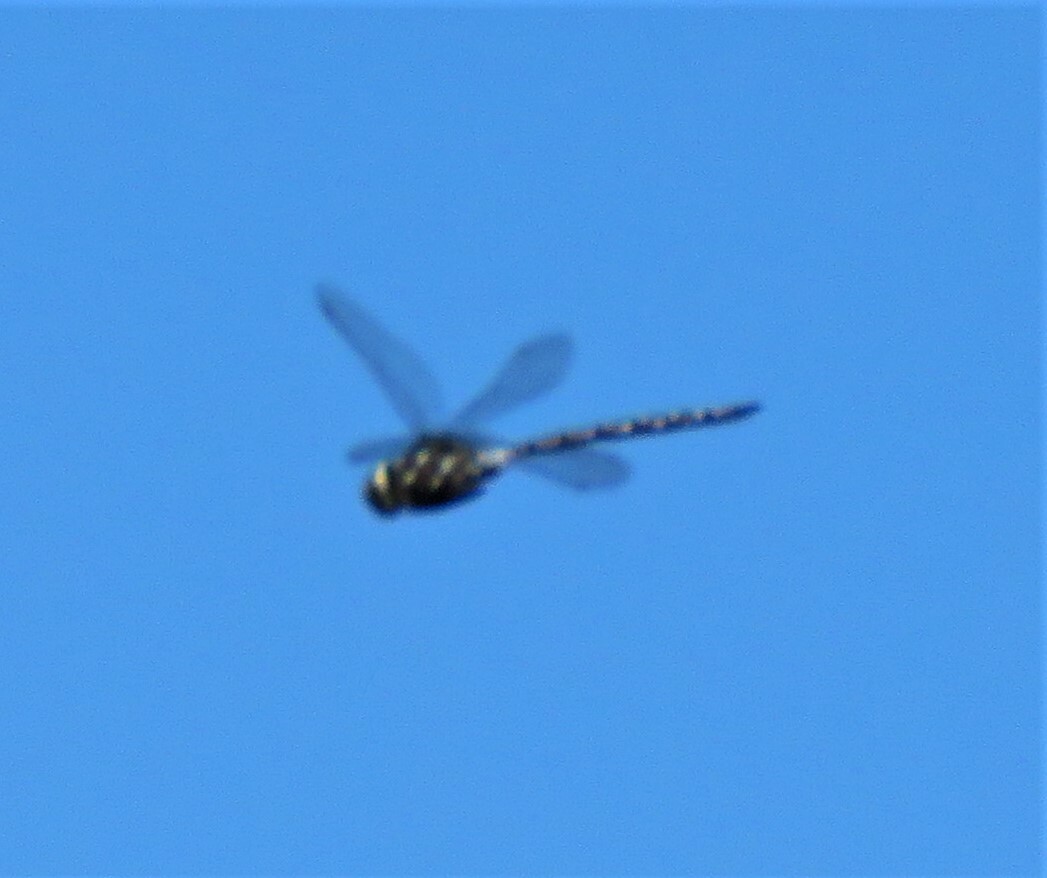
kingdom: Animalia
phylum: Arthropoda
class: Insecta
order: Odonata
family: Aeshnidae
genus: Aeshna
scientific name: Aeshna interrupta
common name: Variable darner
